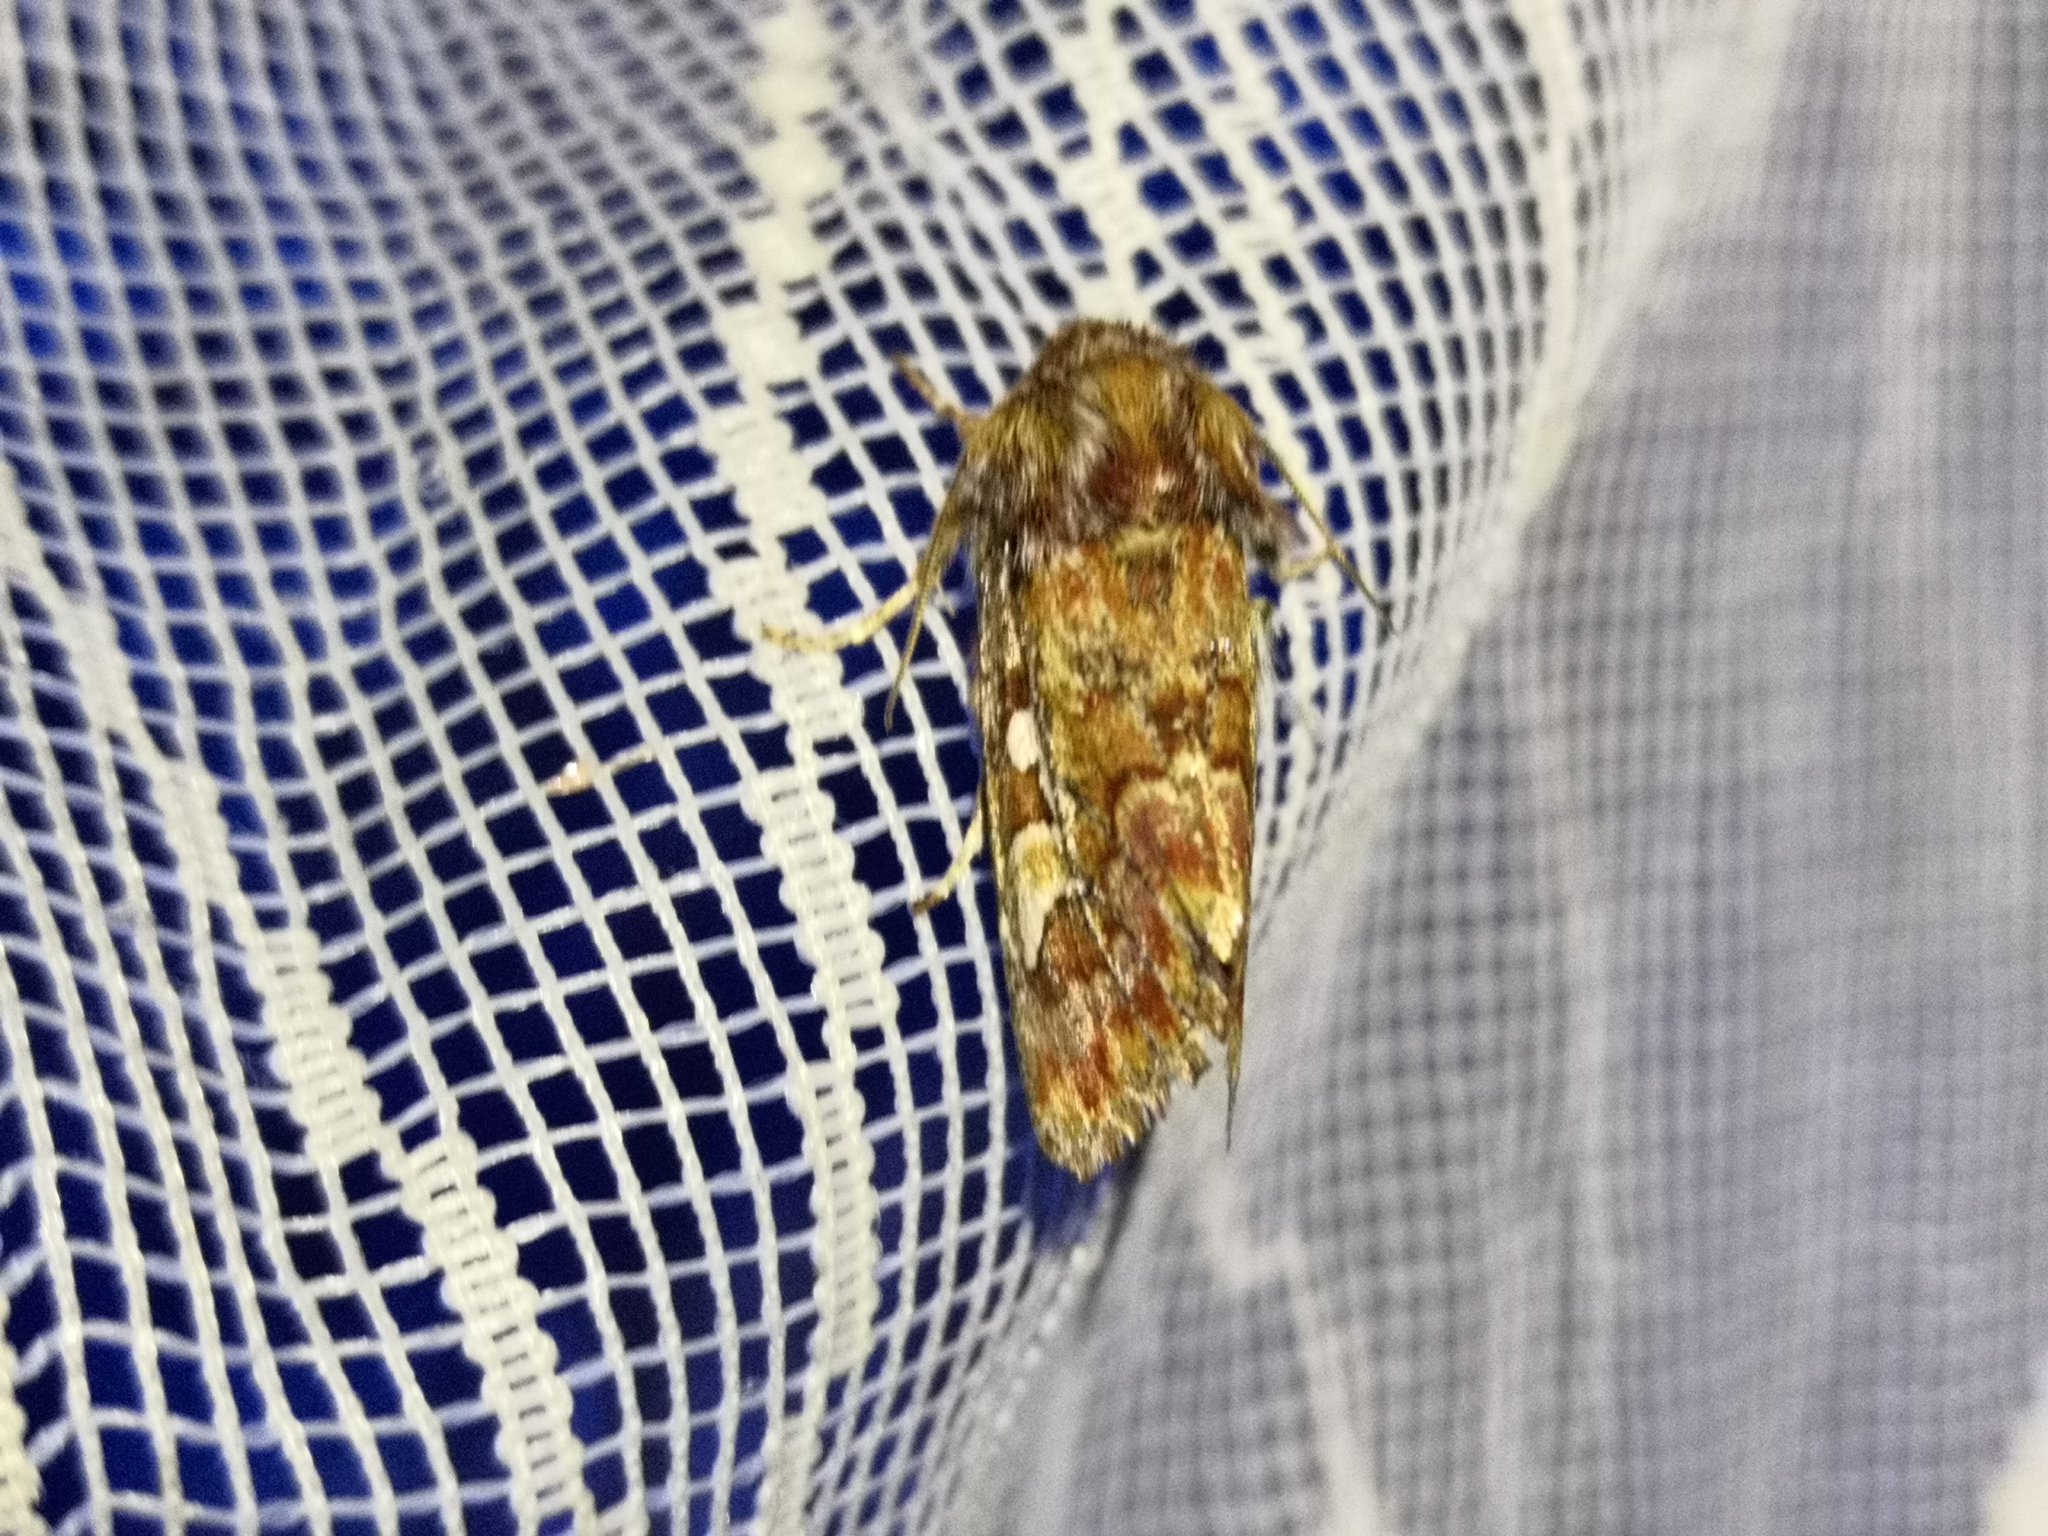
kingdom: Animalia
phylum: Arthropoda
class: Insecta
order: Lepidoptera
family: Noctuidae
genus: Panolis
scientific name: Panolis flammea
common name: Pine beauty
